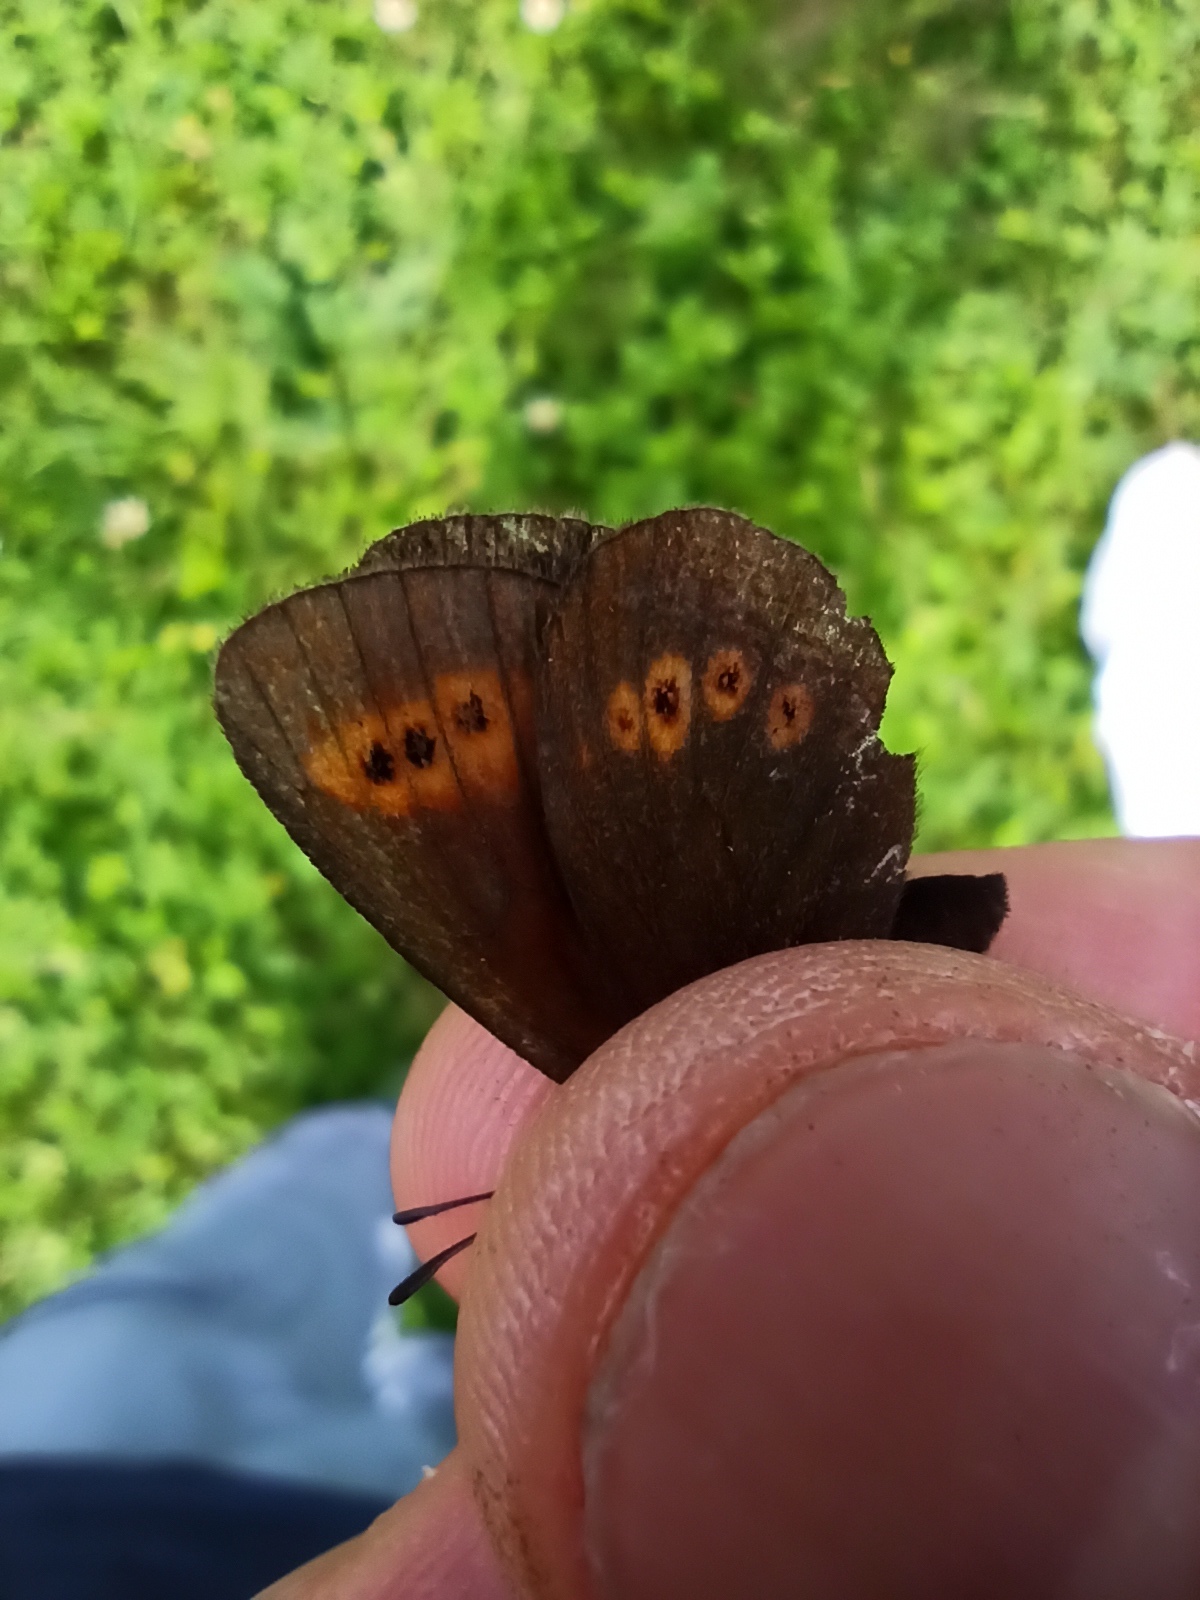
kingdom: Animalia
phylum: Arthropoda
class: Insecta
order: Lepidoptera
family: Nymphalidae
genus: Erebia
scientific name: Erebia melampus
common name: Lesser mountain ringlet
